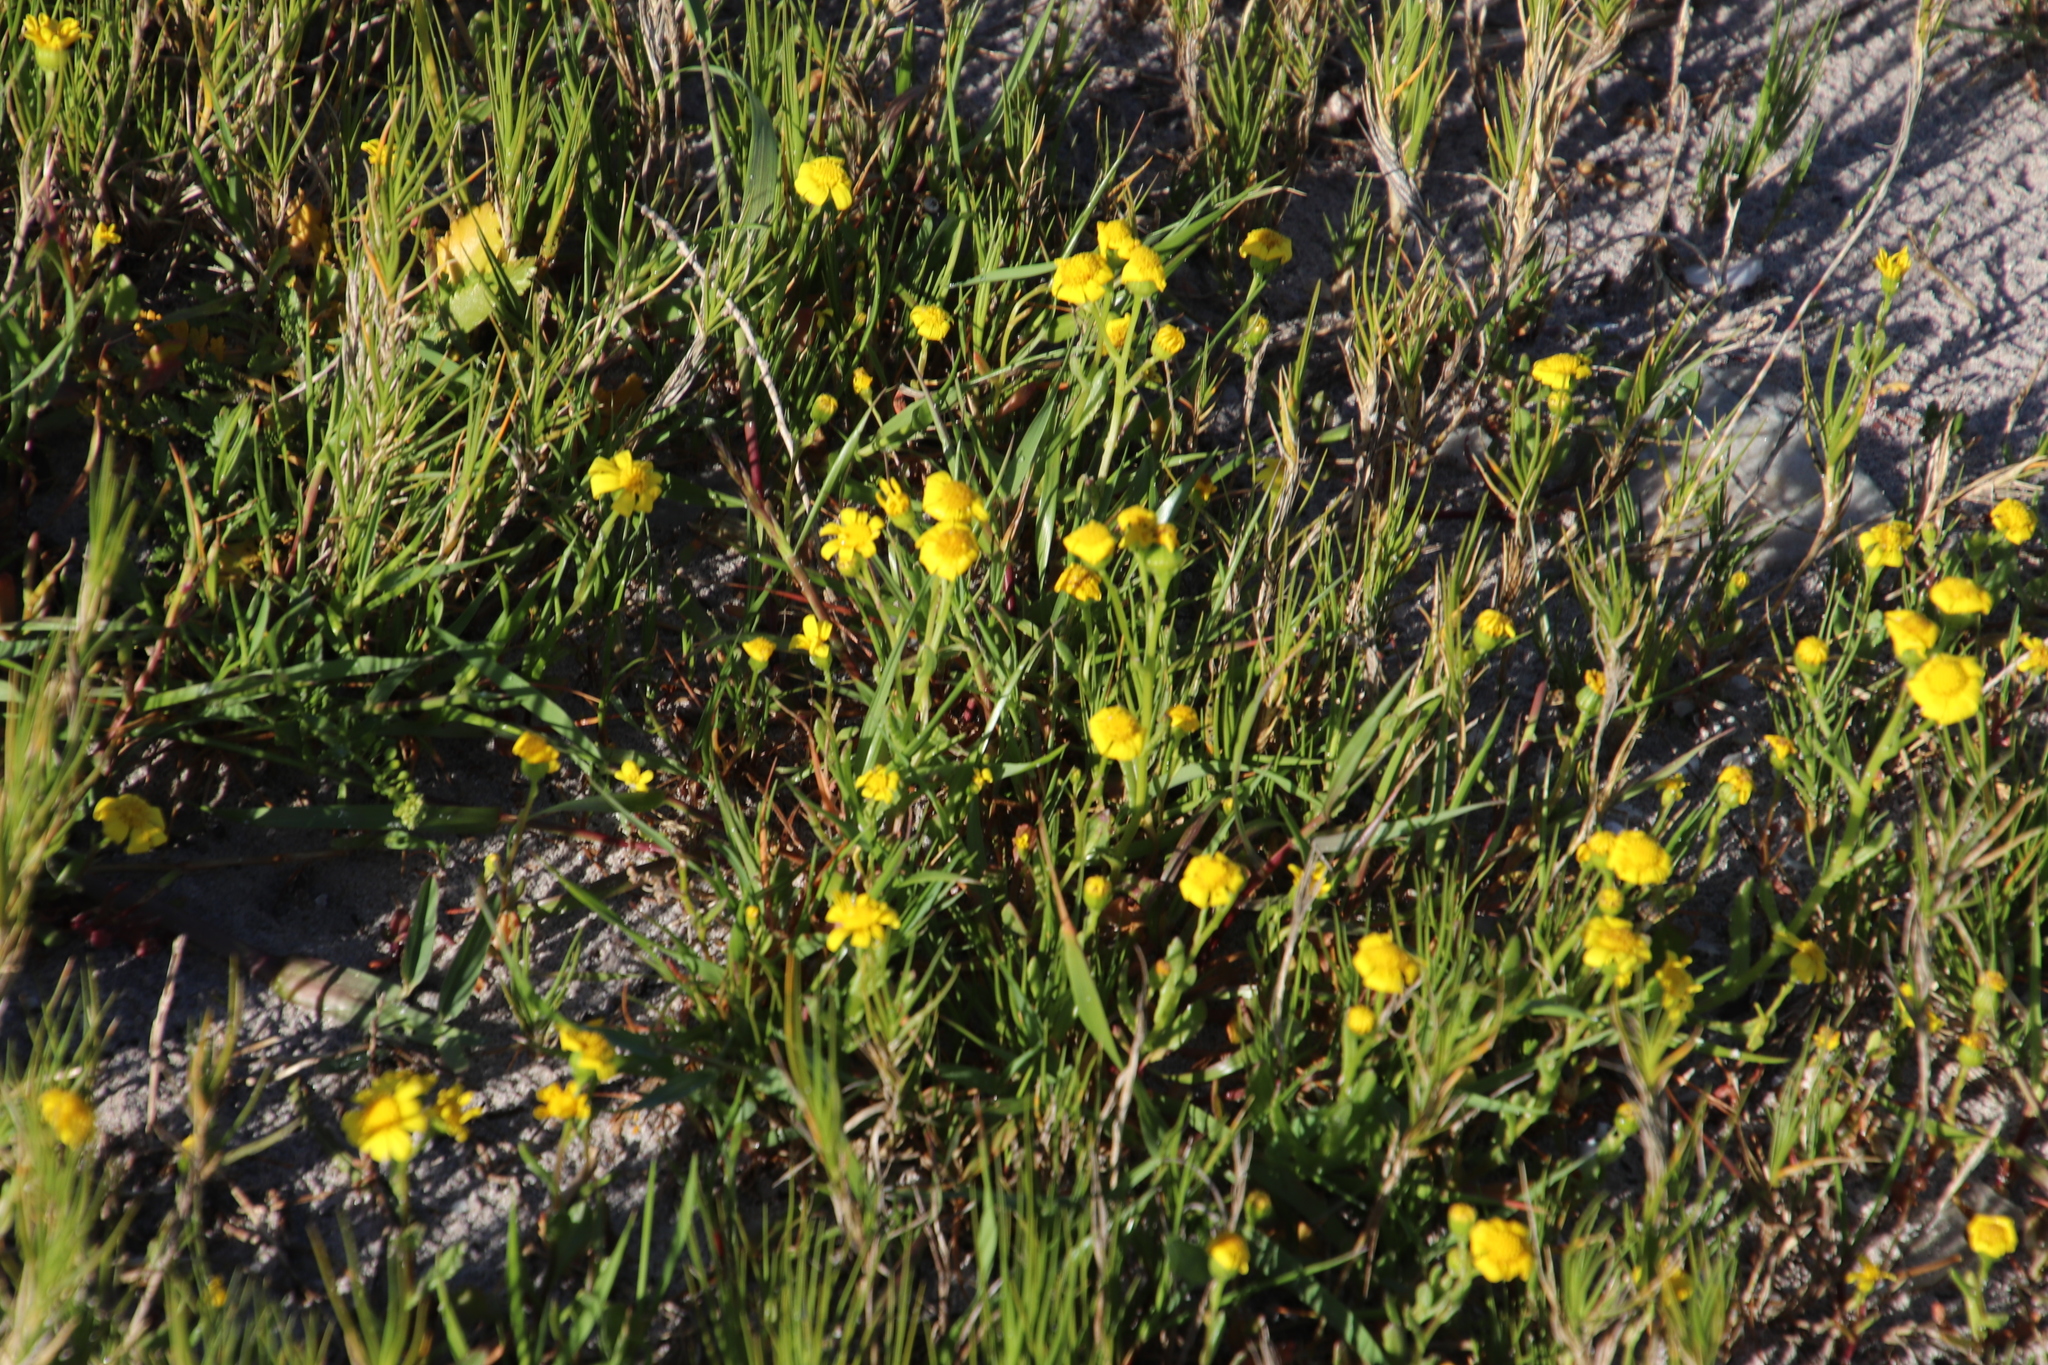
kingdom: Plantae
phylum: Tracheophyta
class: Magnoliopsida
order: Asterales
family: Asteraceae
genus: Senecio
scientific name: Senecio maritimus
